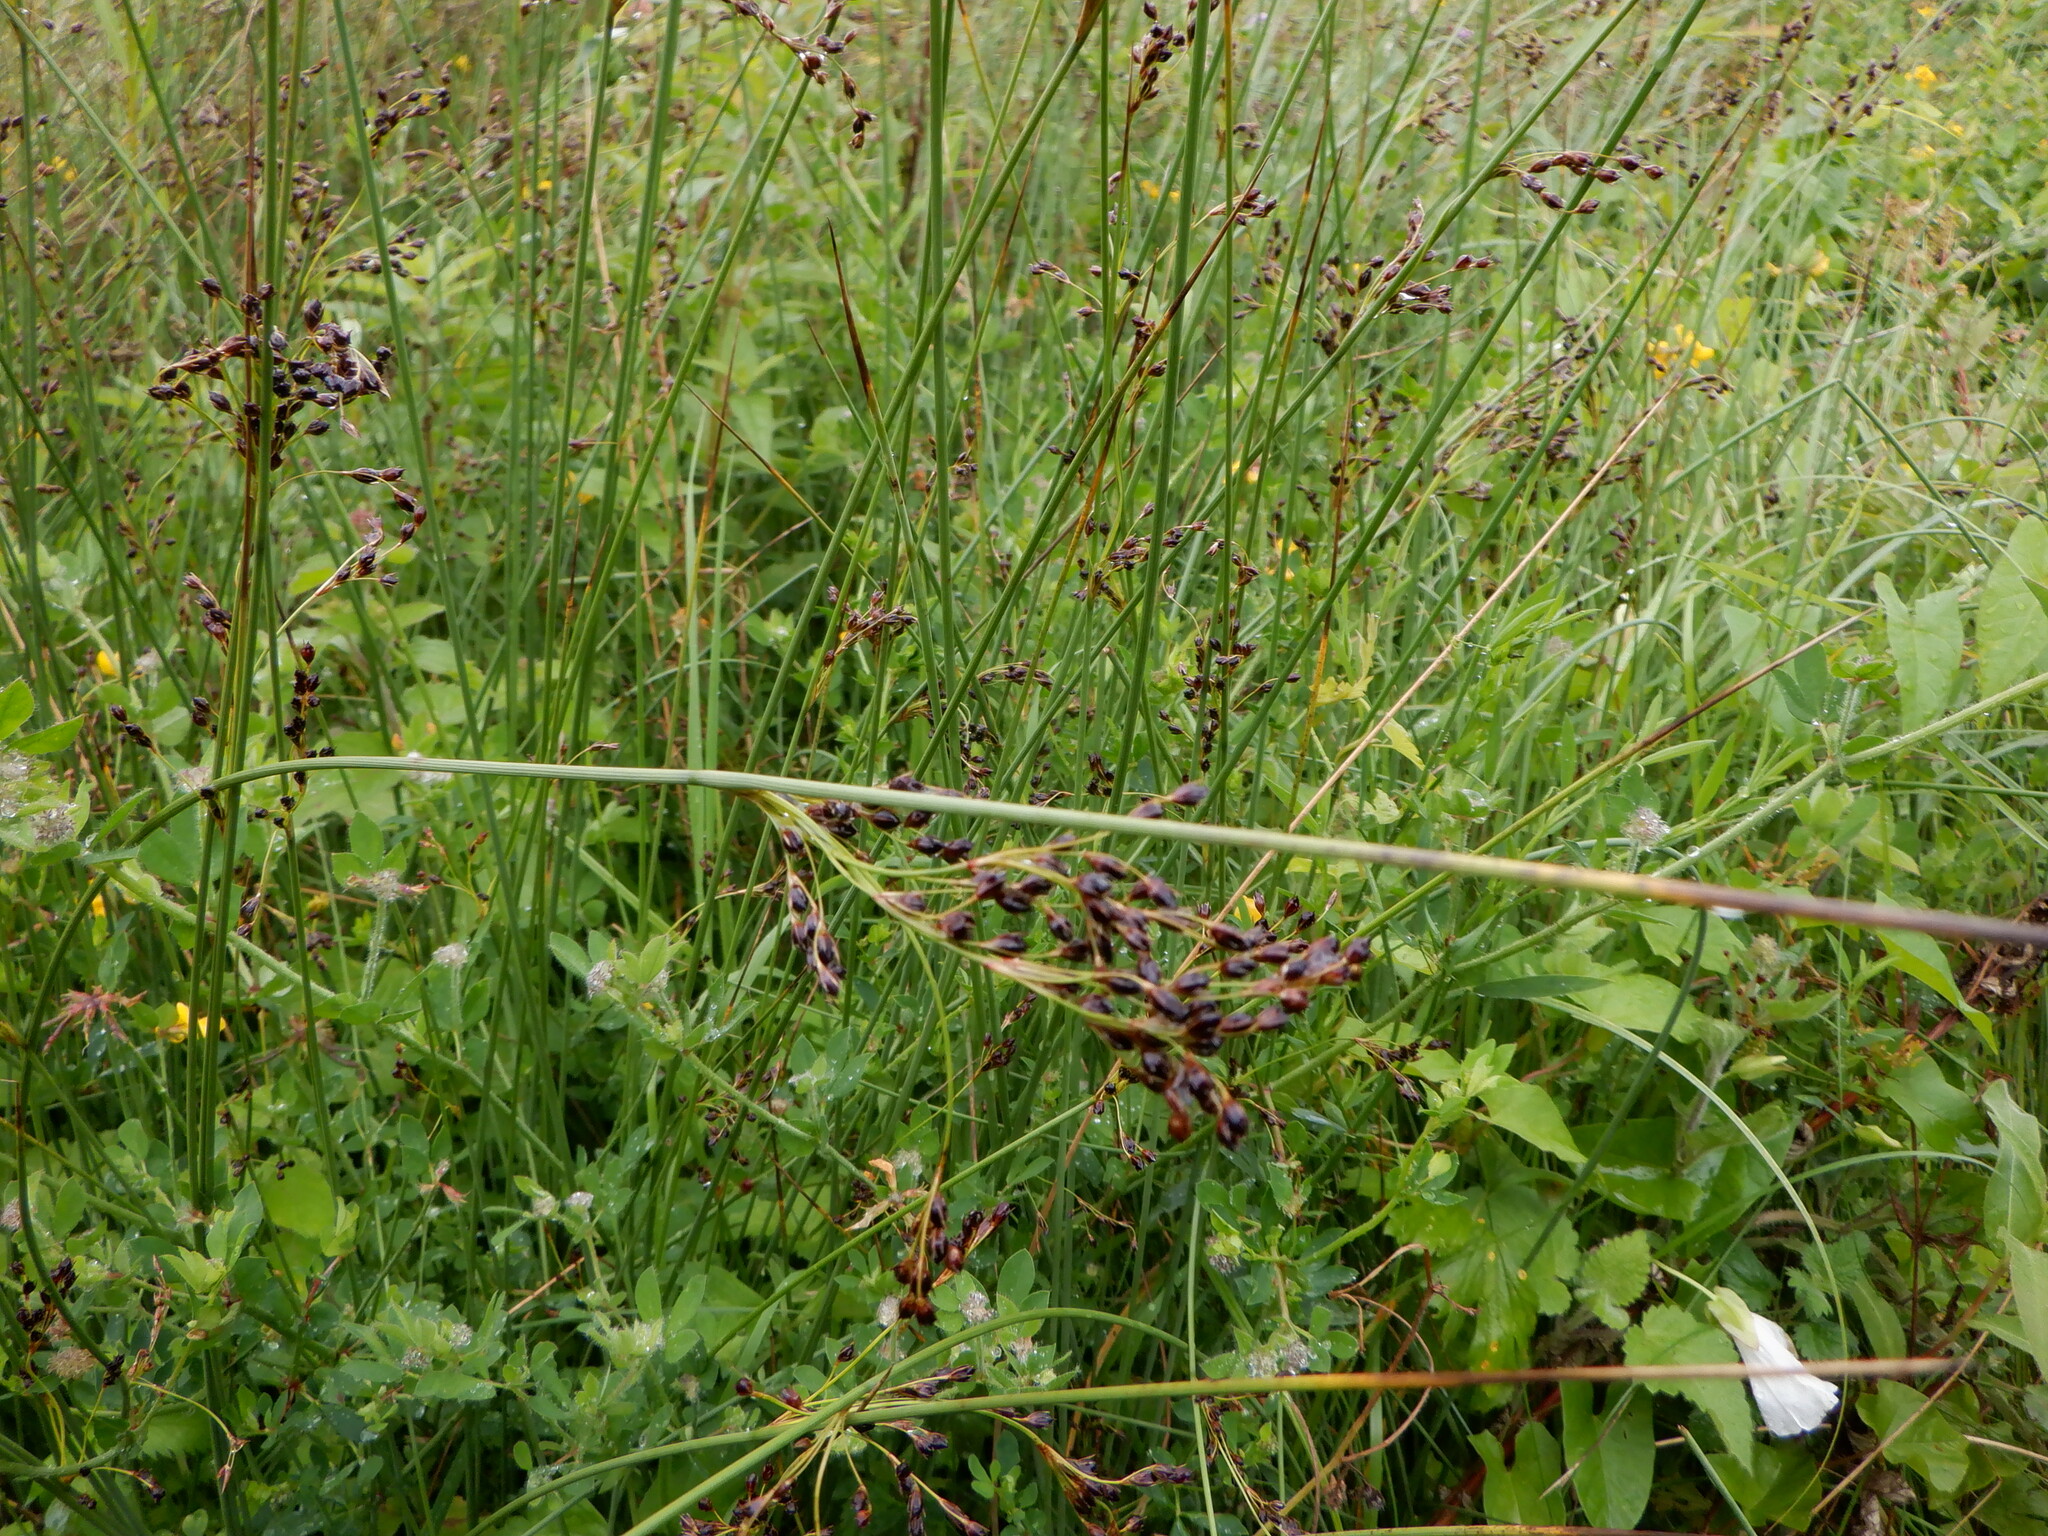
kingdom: Plantae
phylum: Tracheophyta
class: Liliopsida
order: Poales
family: Juncaceae
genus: Juncus
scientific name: Juncus inflexus
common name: Hard rush
